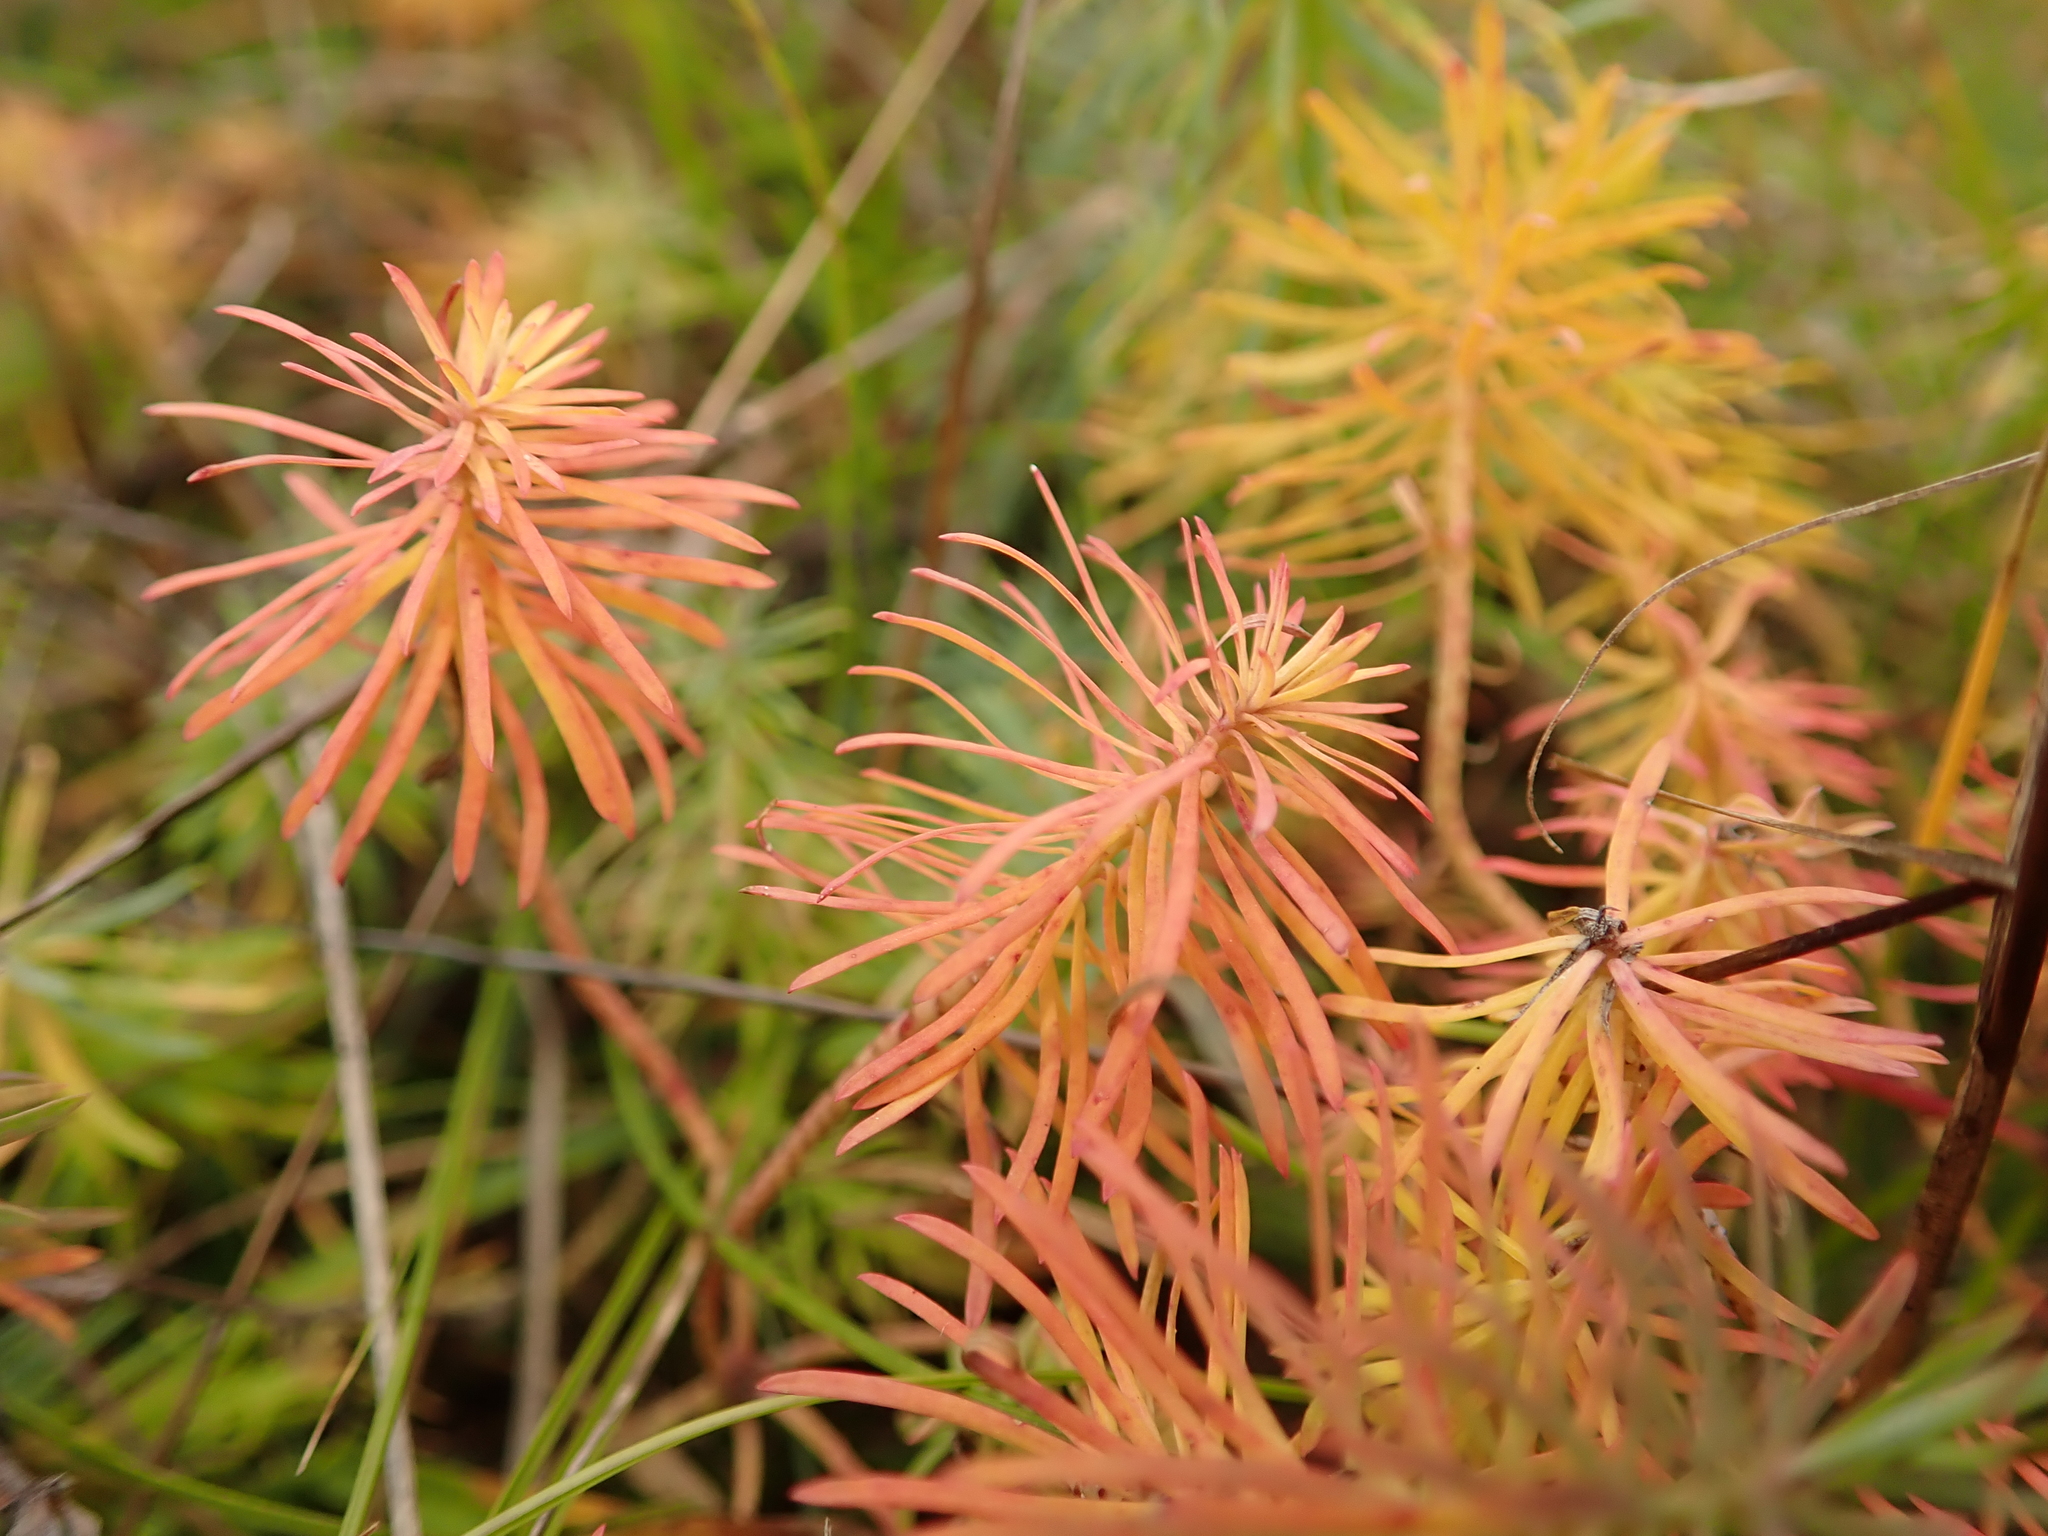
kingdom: Plantae
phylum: Tracheophyta
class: Magnoliopsida
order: Malpighiales
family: Euphorbiaceae
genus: Euphorbia
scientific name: Euphorbia cyparissias
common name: Cypress spurge
